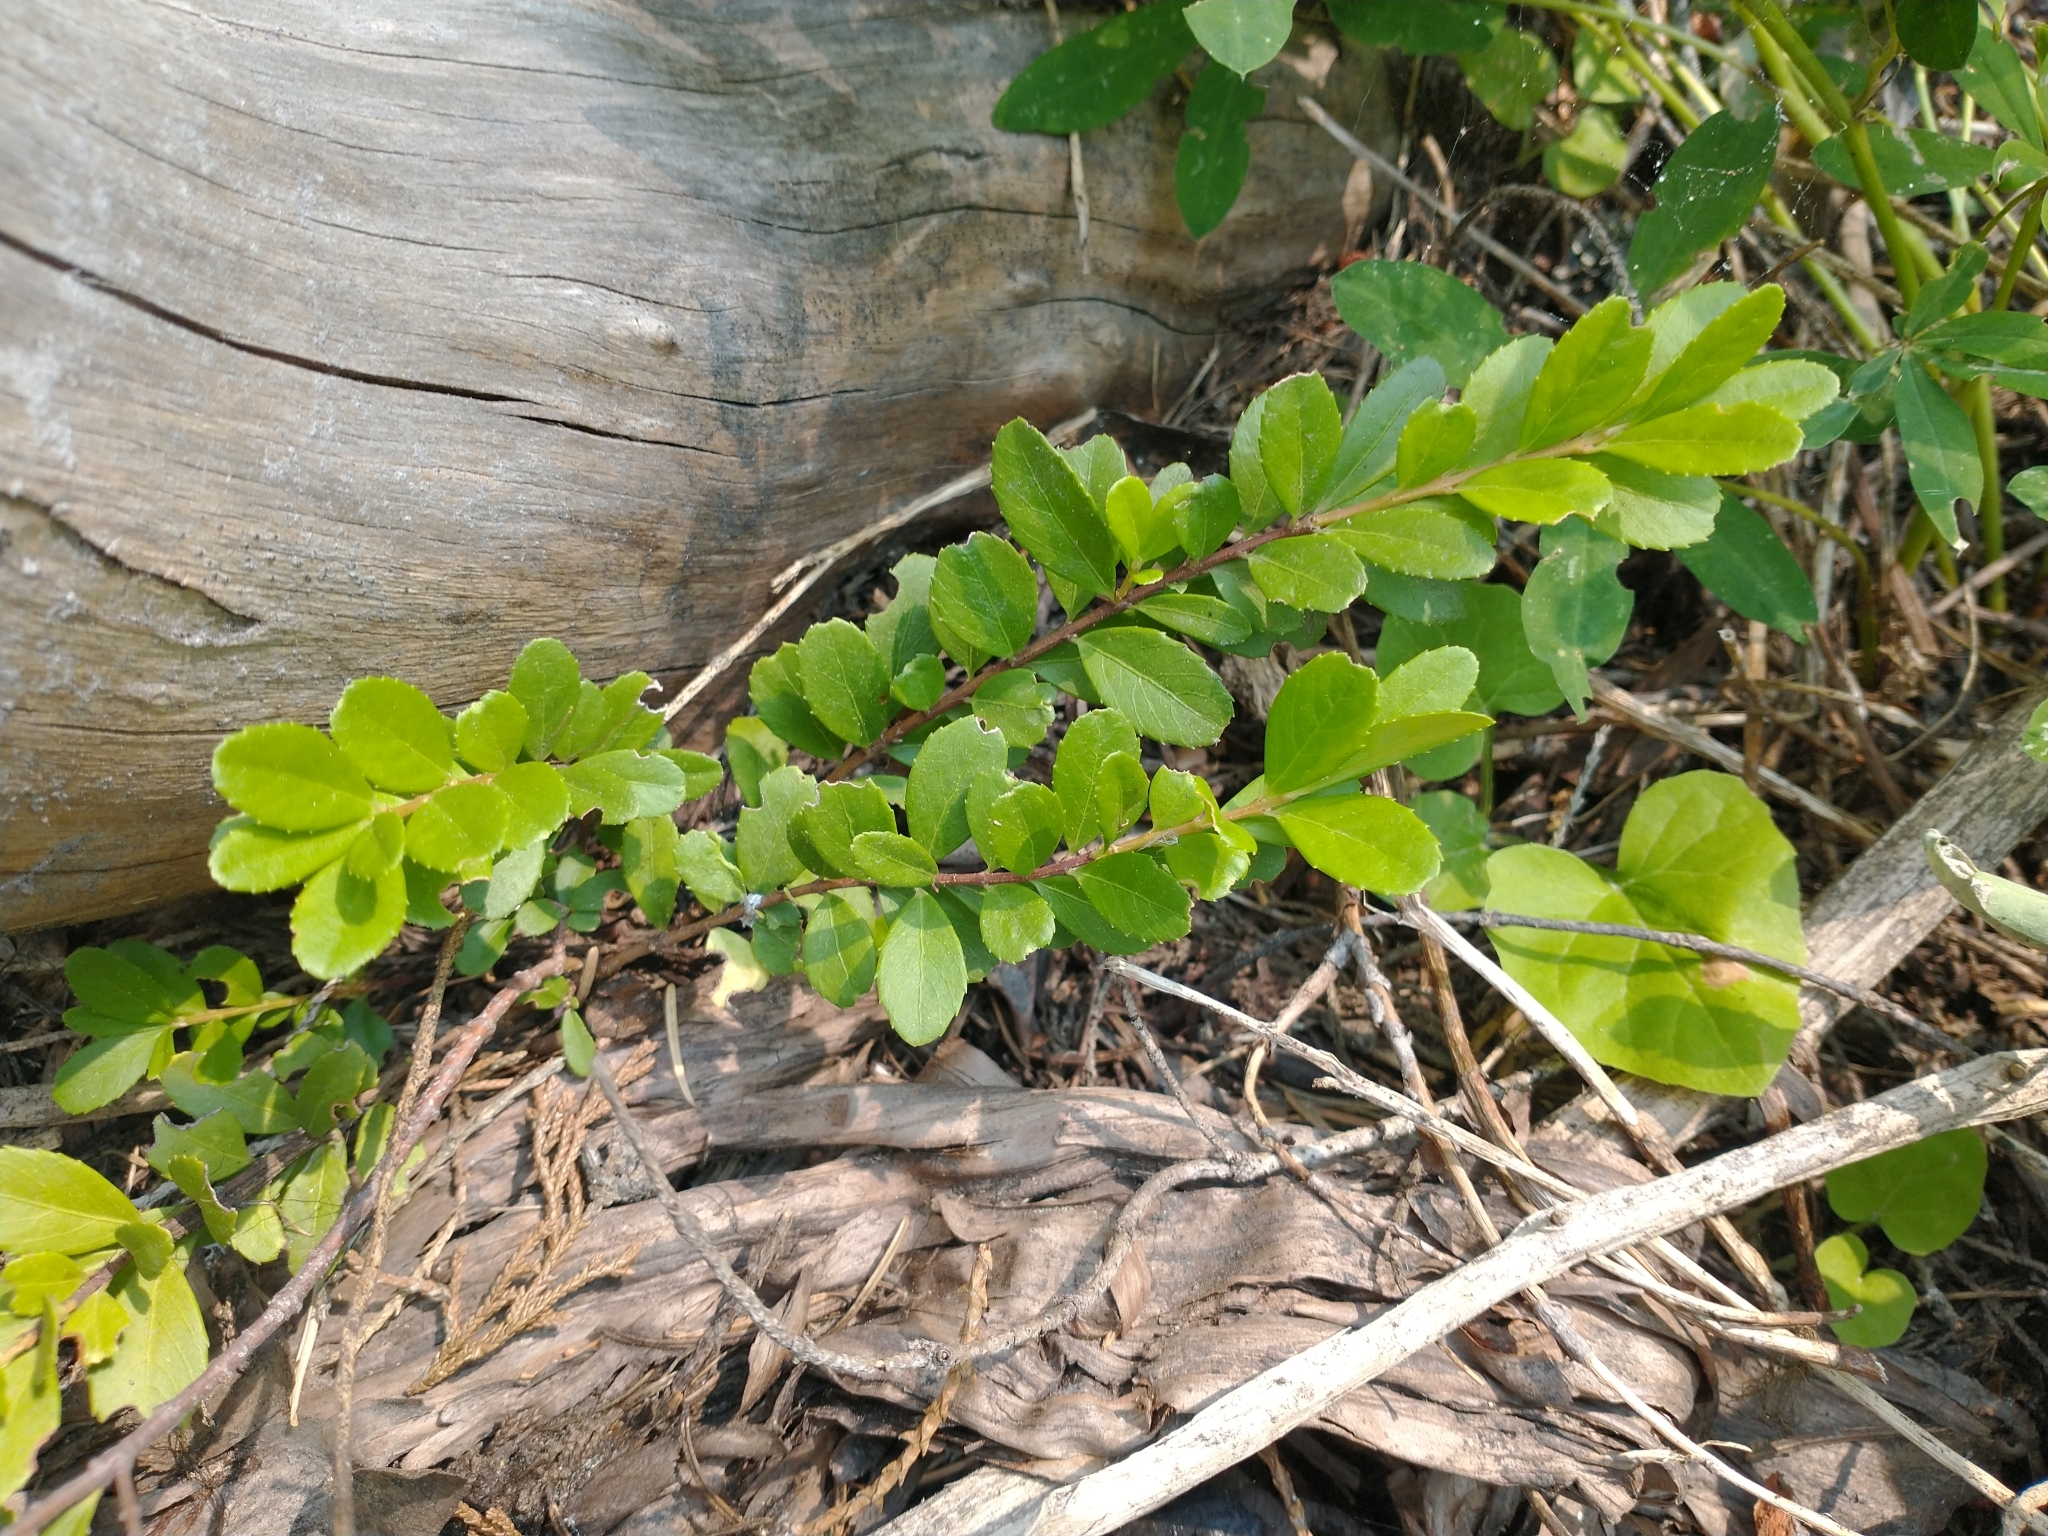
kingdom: Plantae
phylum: Tracheophyta
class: Magnoliopsida
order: Celastrales
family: Celastraceae
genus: Paxistima
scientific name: Paxistima myrsinites
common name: Mountain-lover
